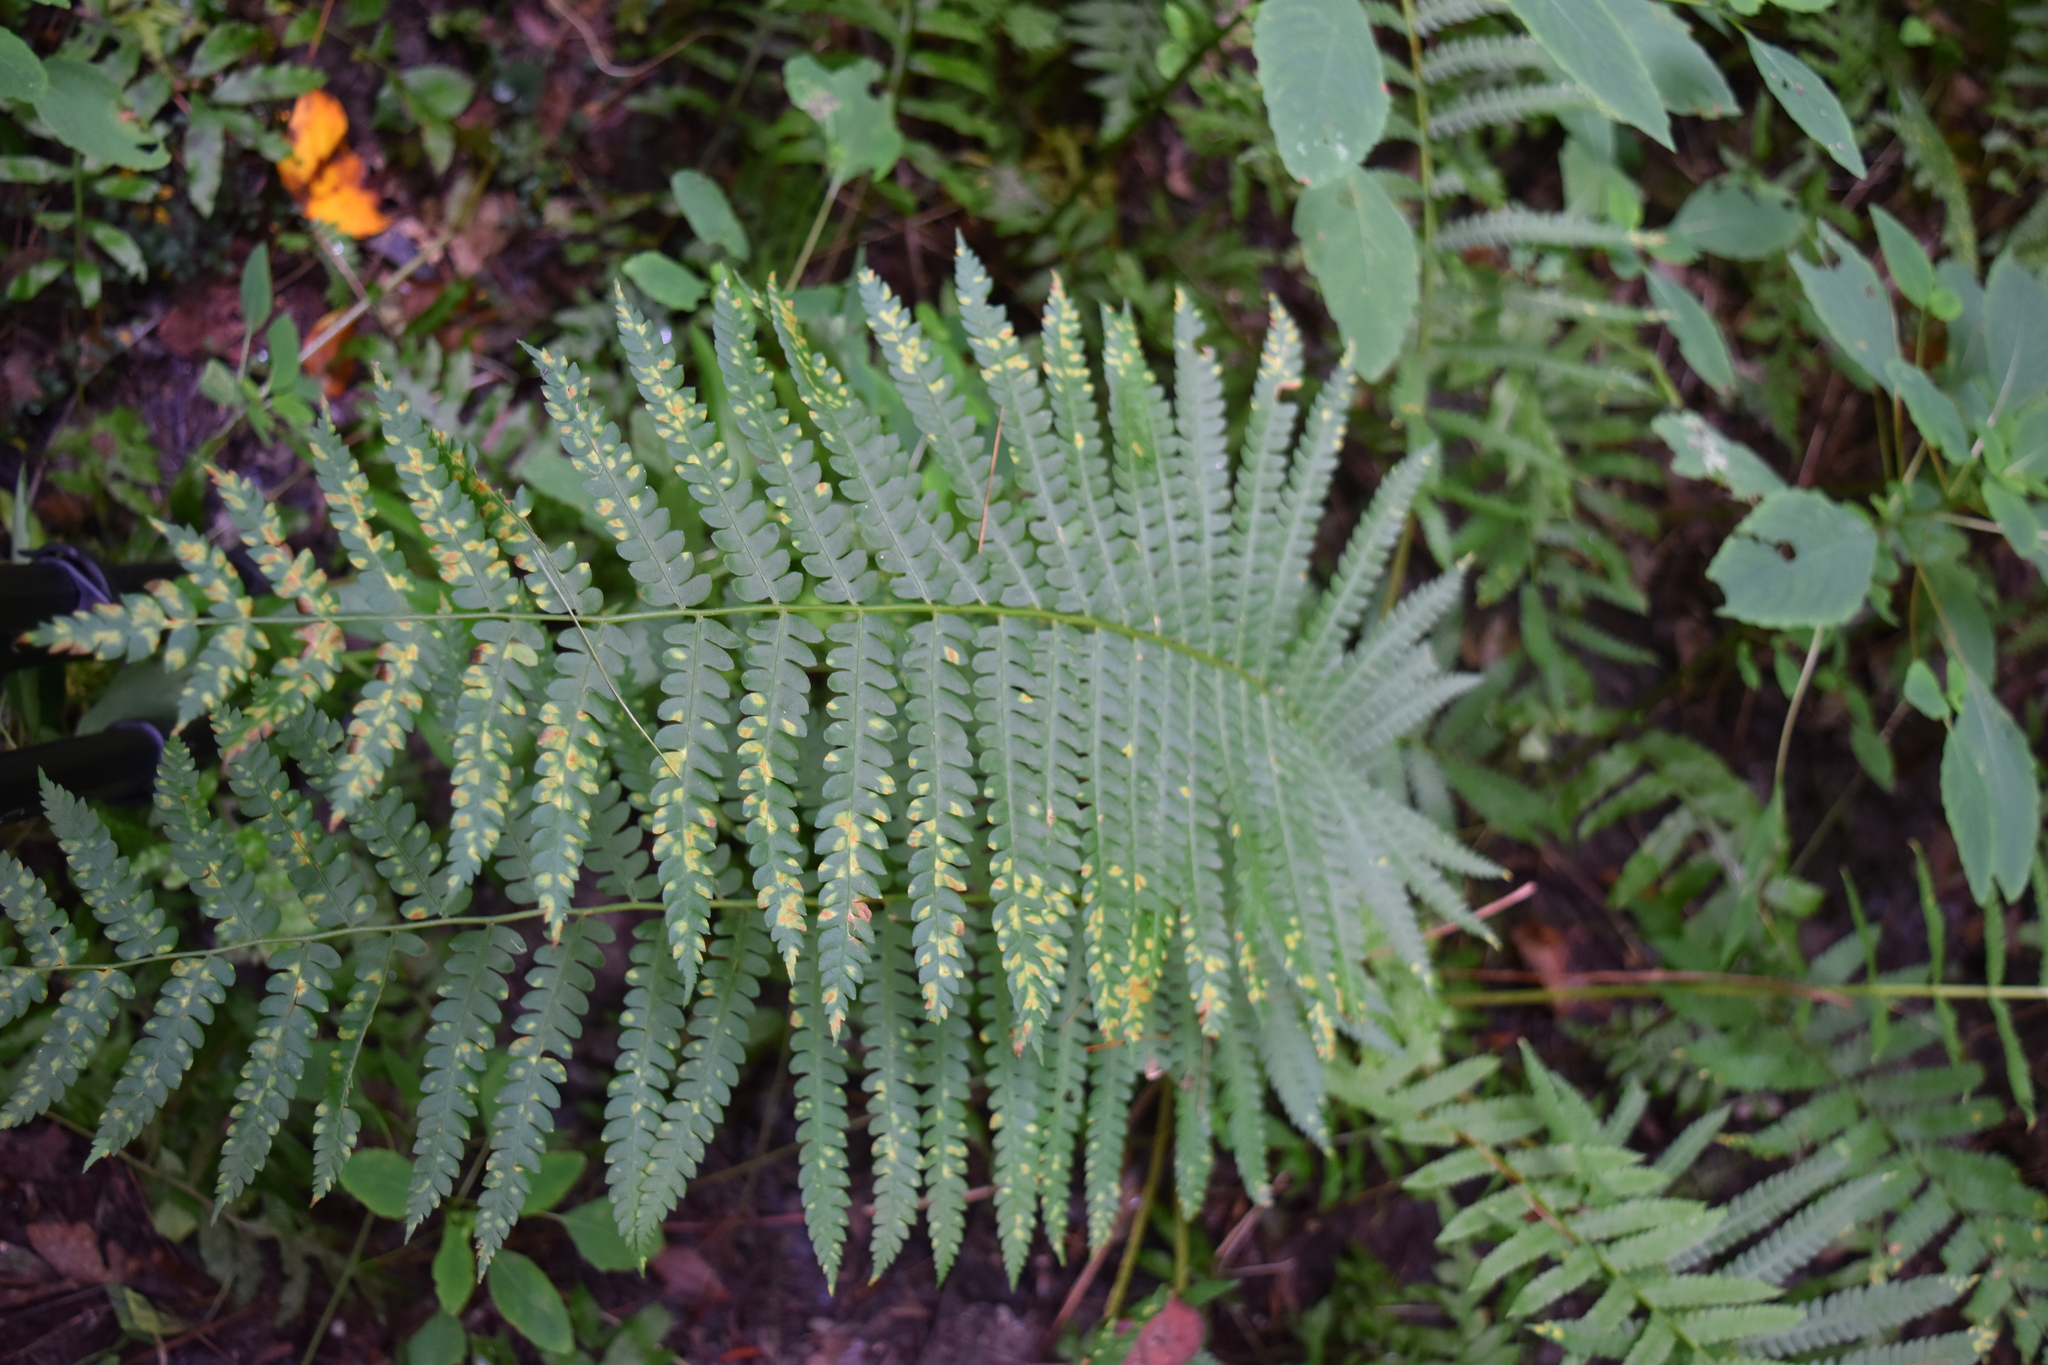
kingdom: Plantae
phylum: Tracheophyta
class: Polypodiopsida
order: Osmundales
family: Osmundaceae
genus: Osmundastrum
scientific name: Osmundastrum cinnamomeum
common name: Cinnamon fern
